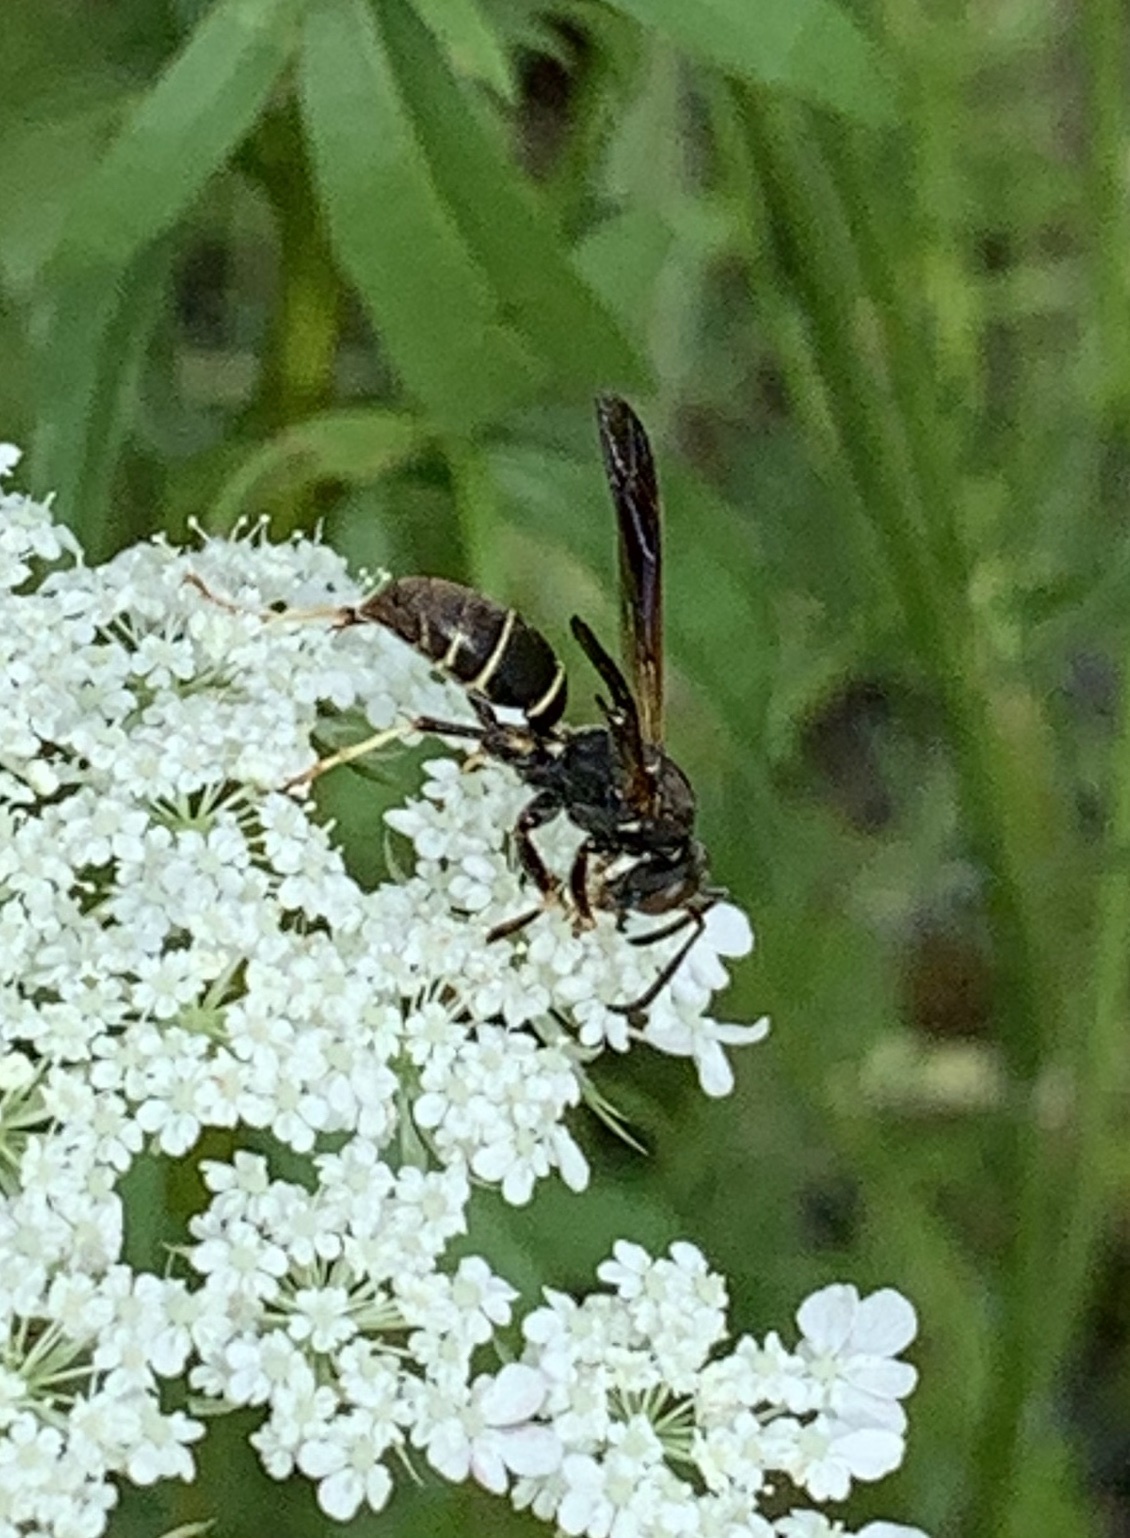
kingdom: Animalia
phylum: Arthropoda
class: Insecta
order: Hymenoptera
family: Eumenidae
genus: Polistes
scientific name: Polistes fuscatus
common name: Dark paper wasp
